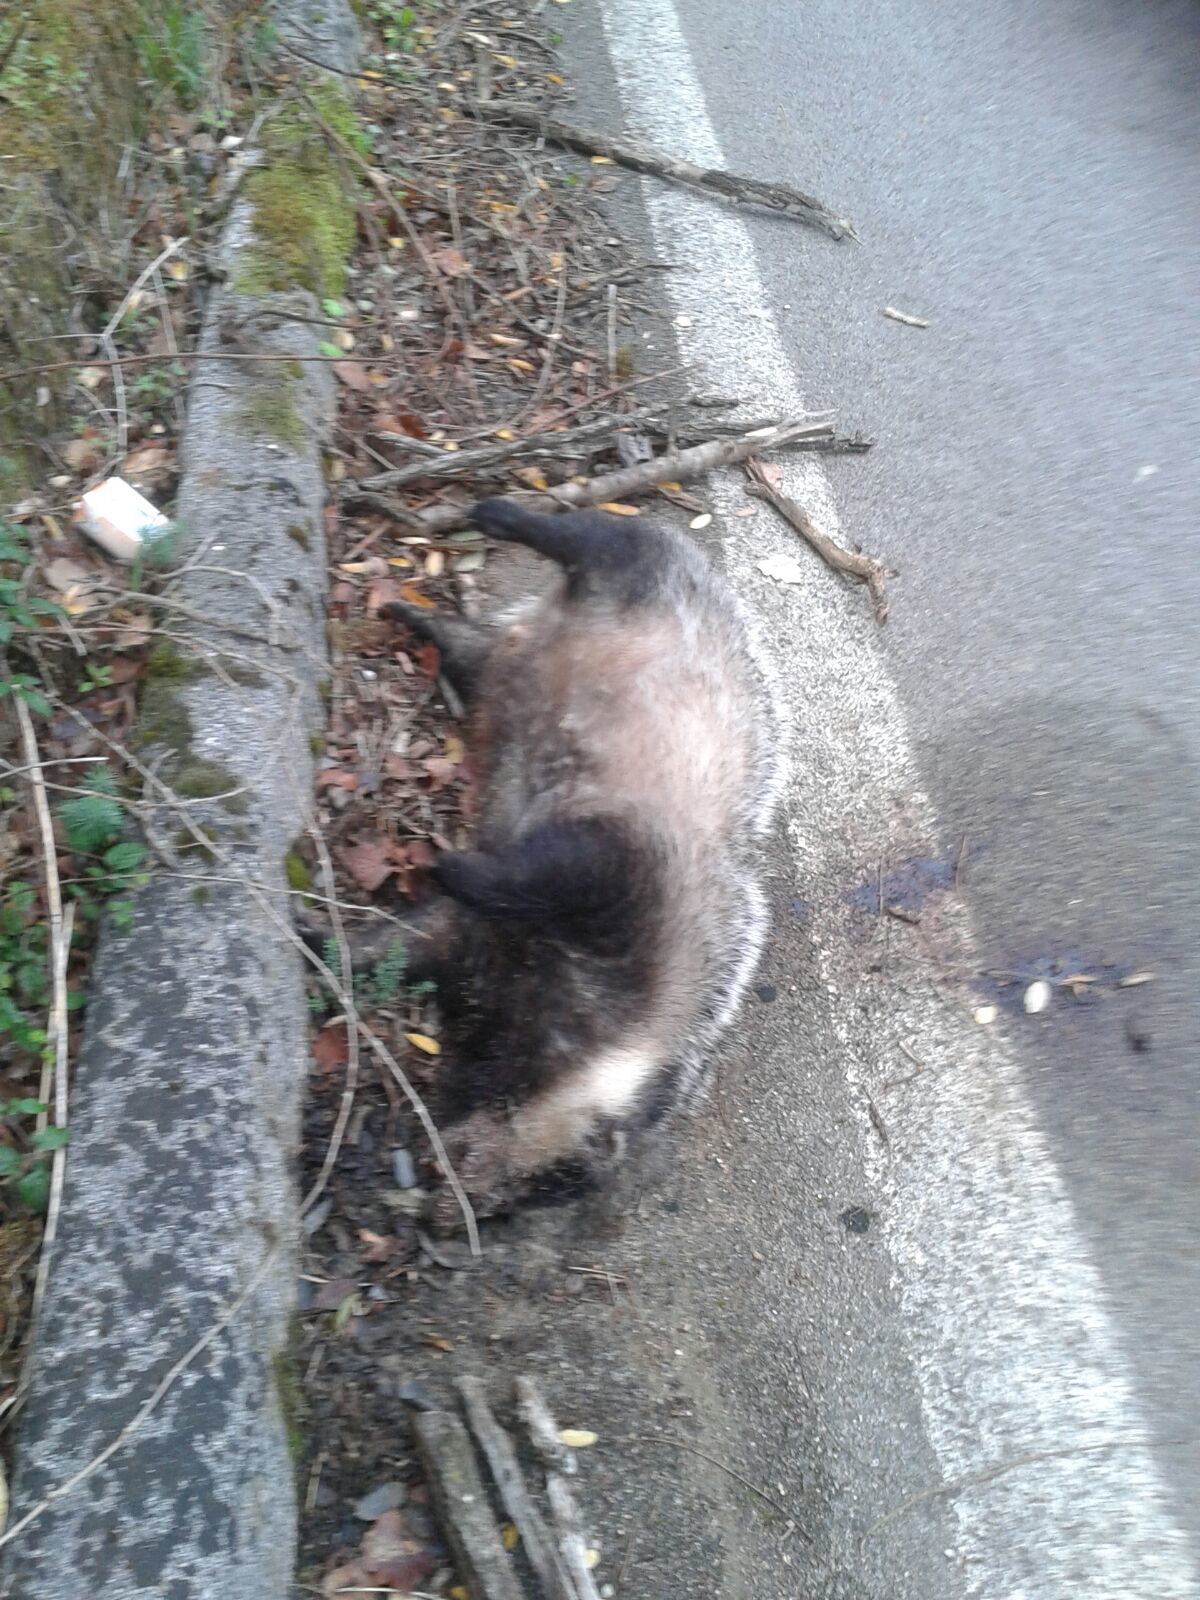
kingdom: Animalia
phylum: Chordata
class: Mammalia
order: Carnivora
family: Mustelidae
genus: Meles
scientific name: Meles meles
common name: Eurasian badger
